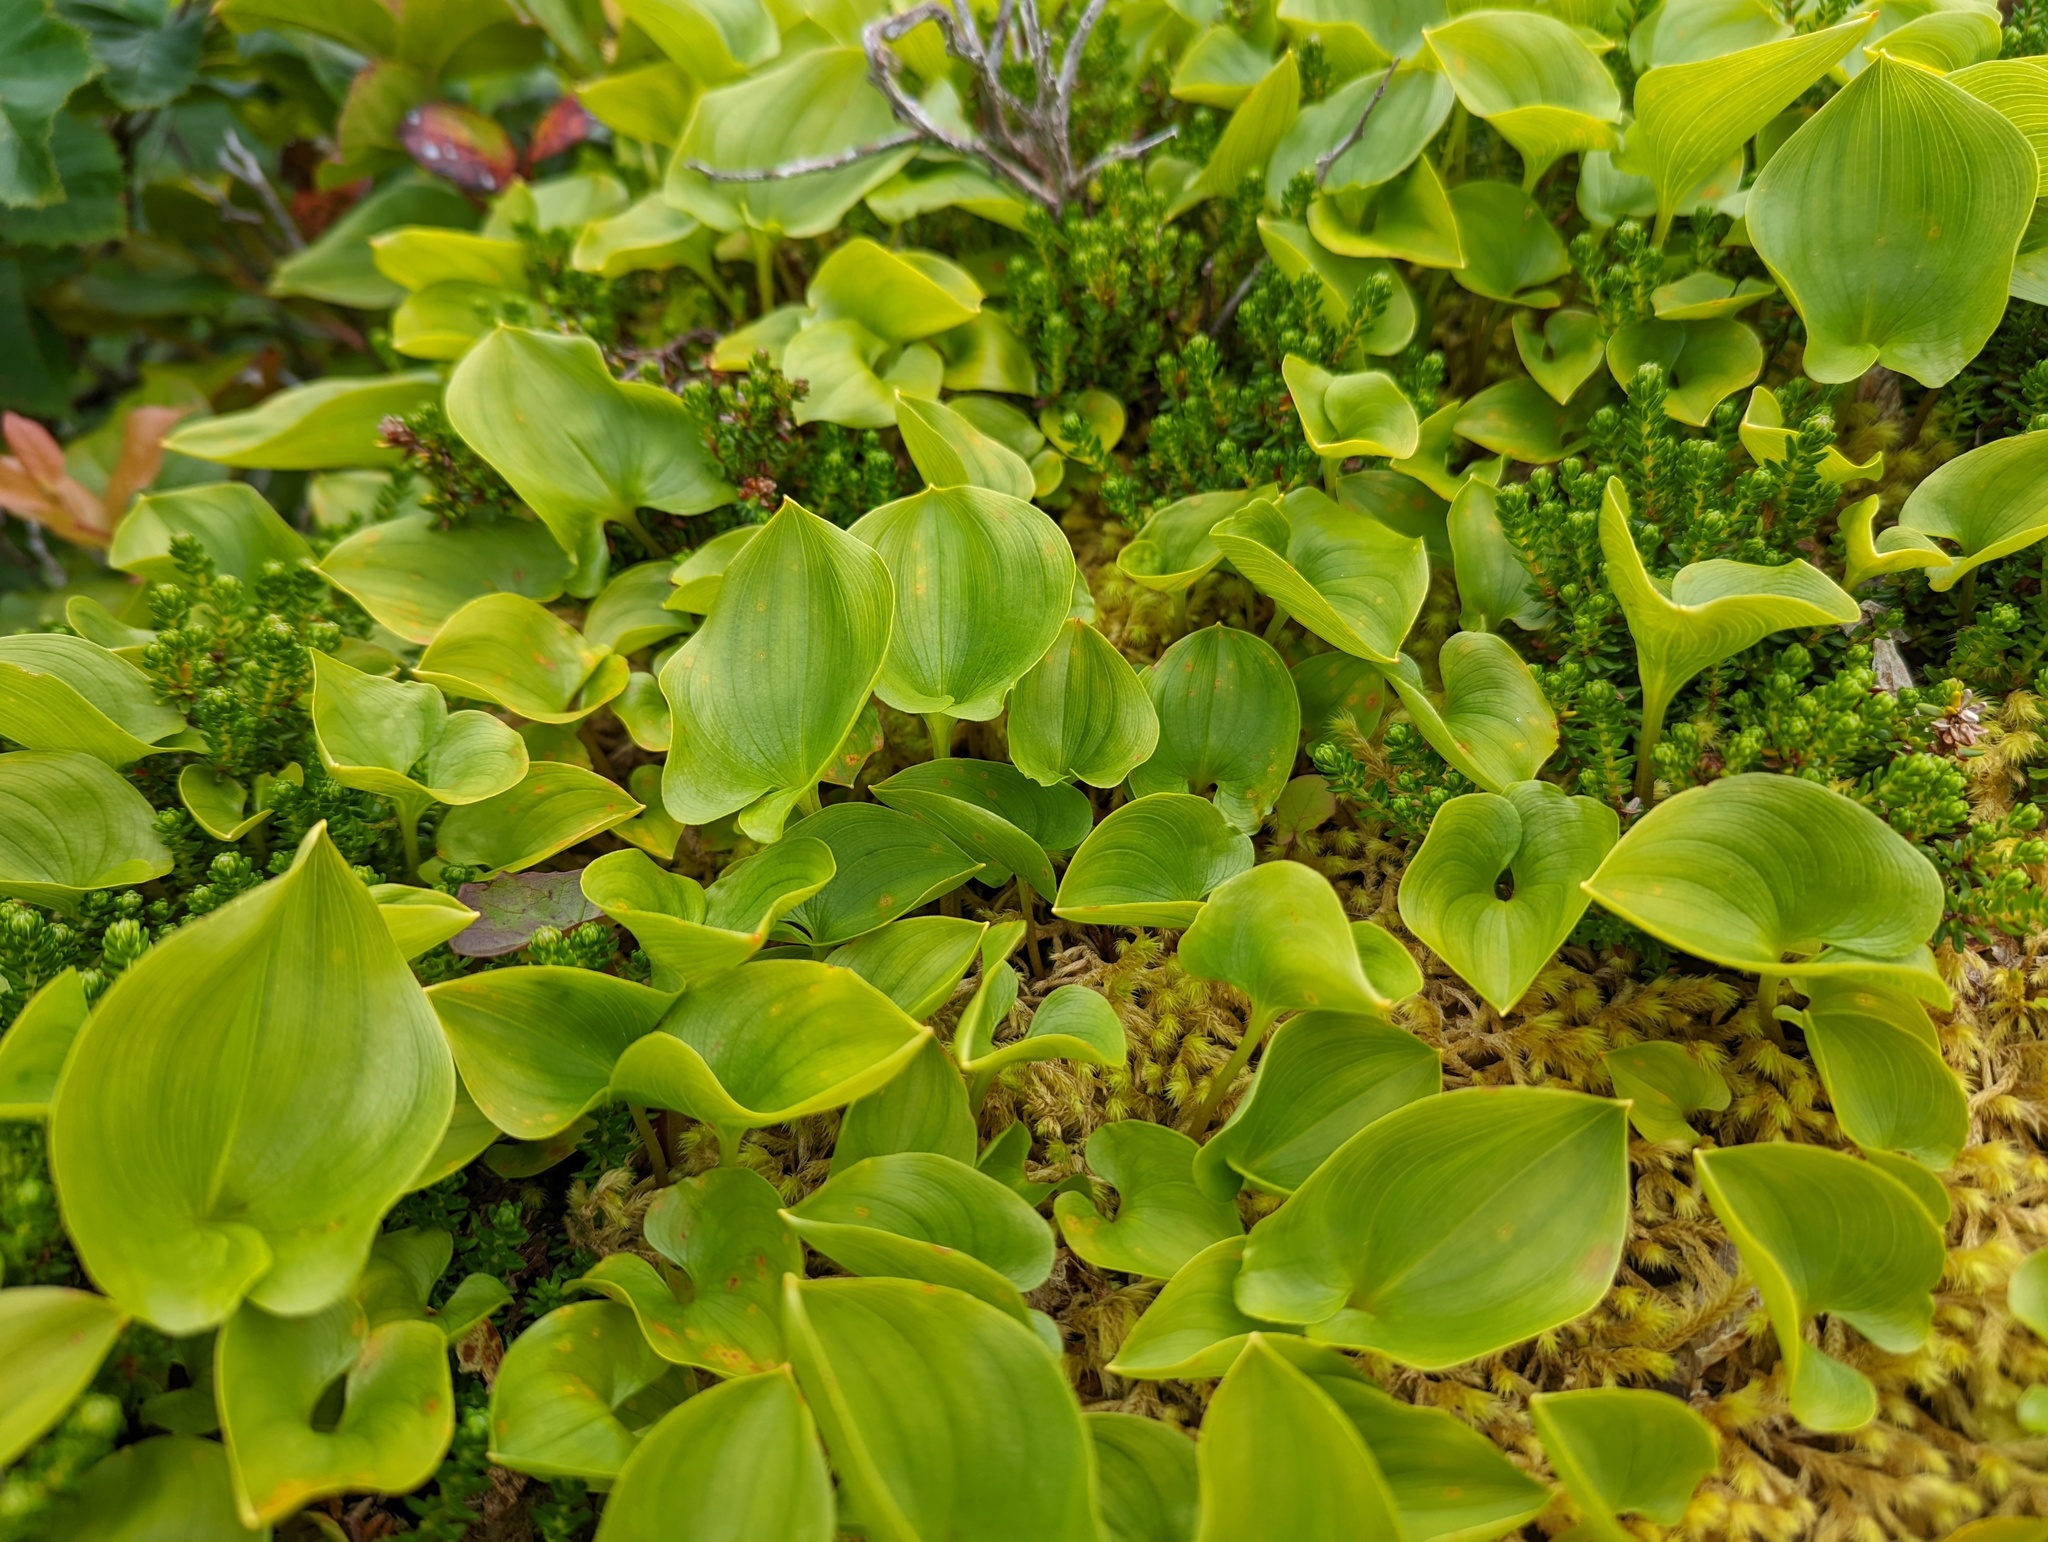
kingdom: Plantae
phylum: Tracheophyta
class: Liliopsida
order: Asparagales
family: Asparagaceae
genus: Maianthemum
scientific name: Maianthemum dilatatum
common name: False lily-of-the-valley
